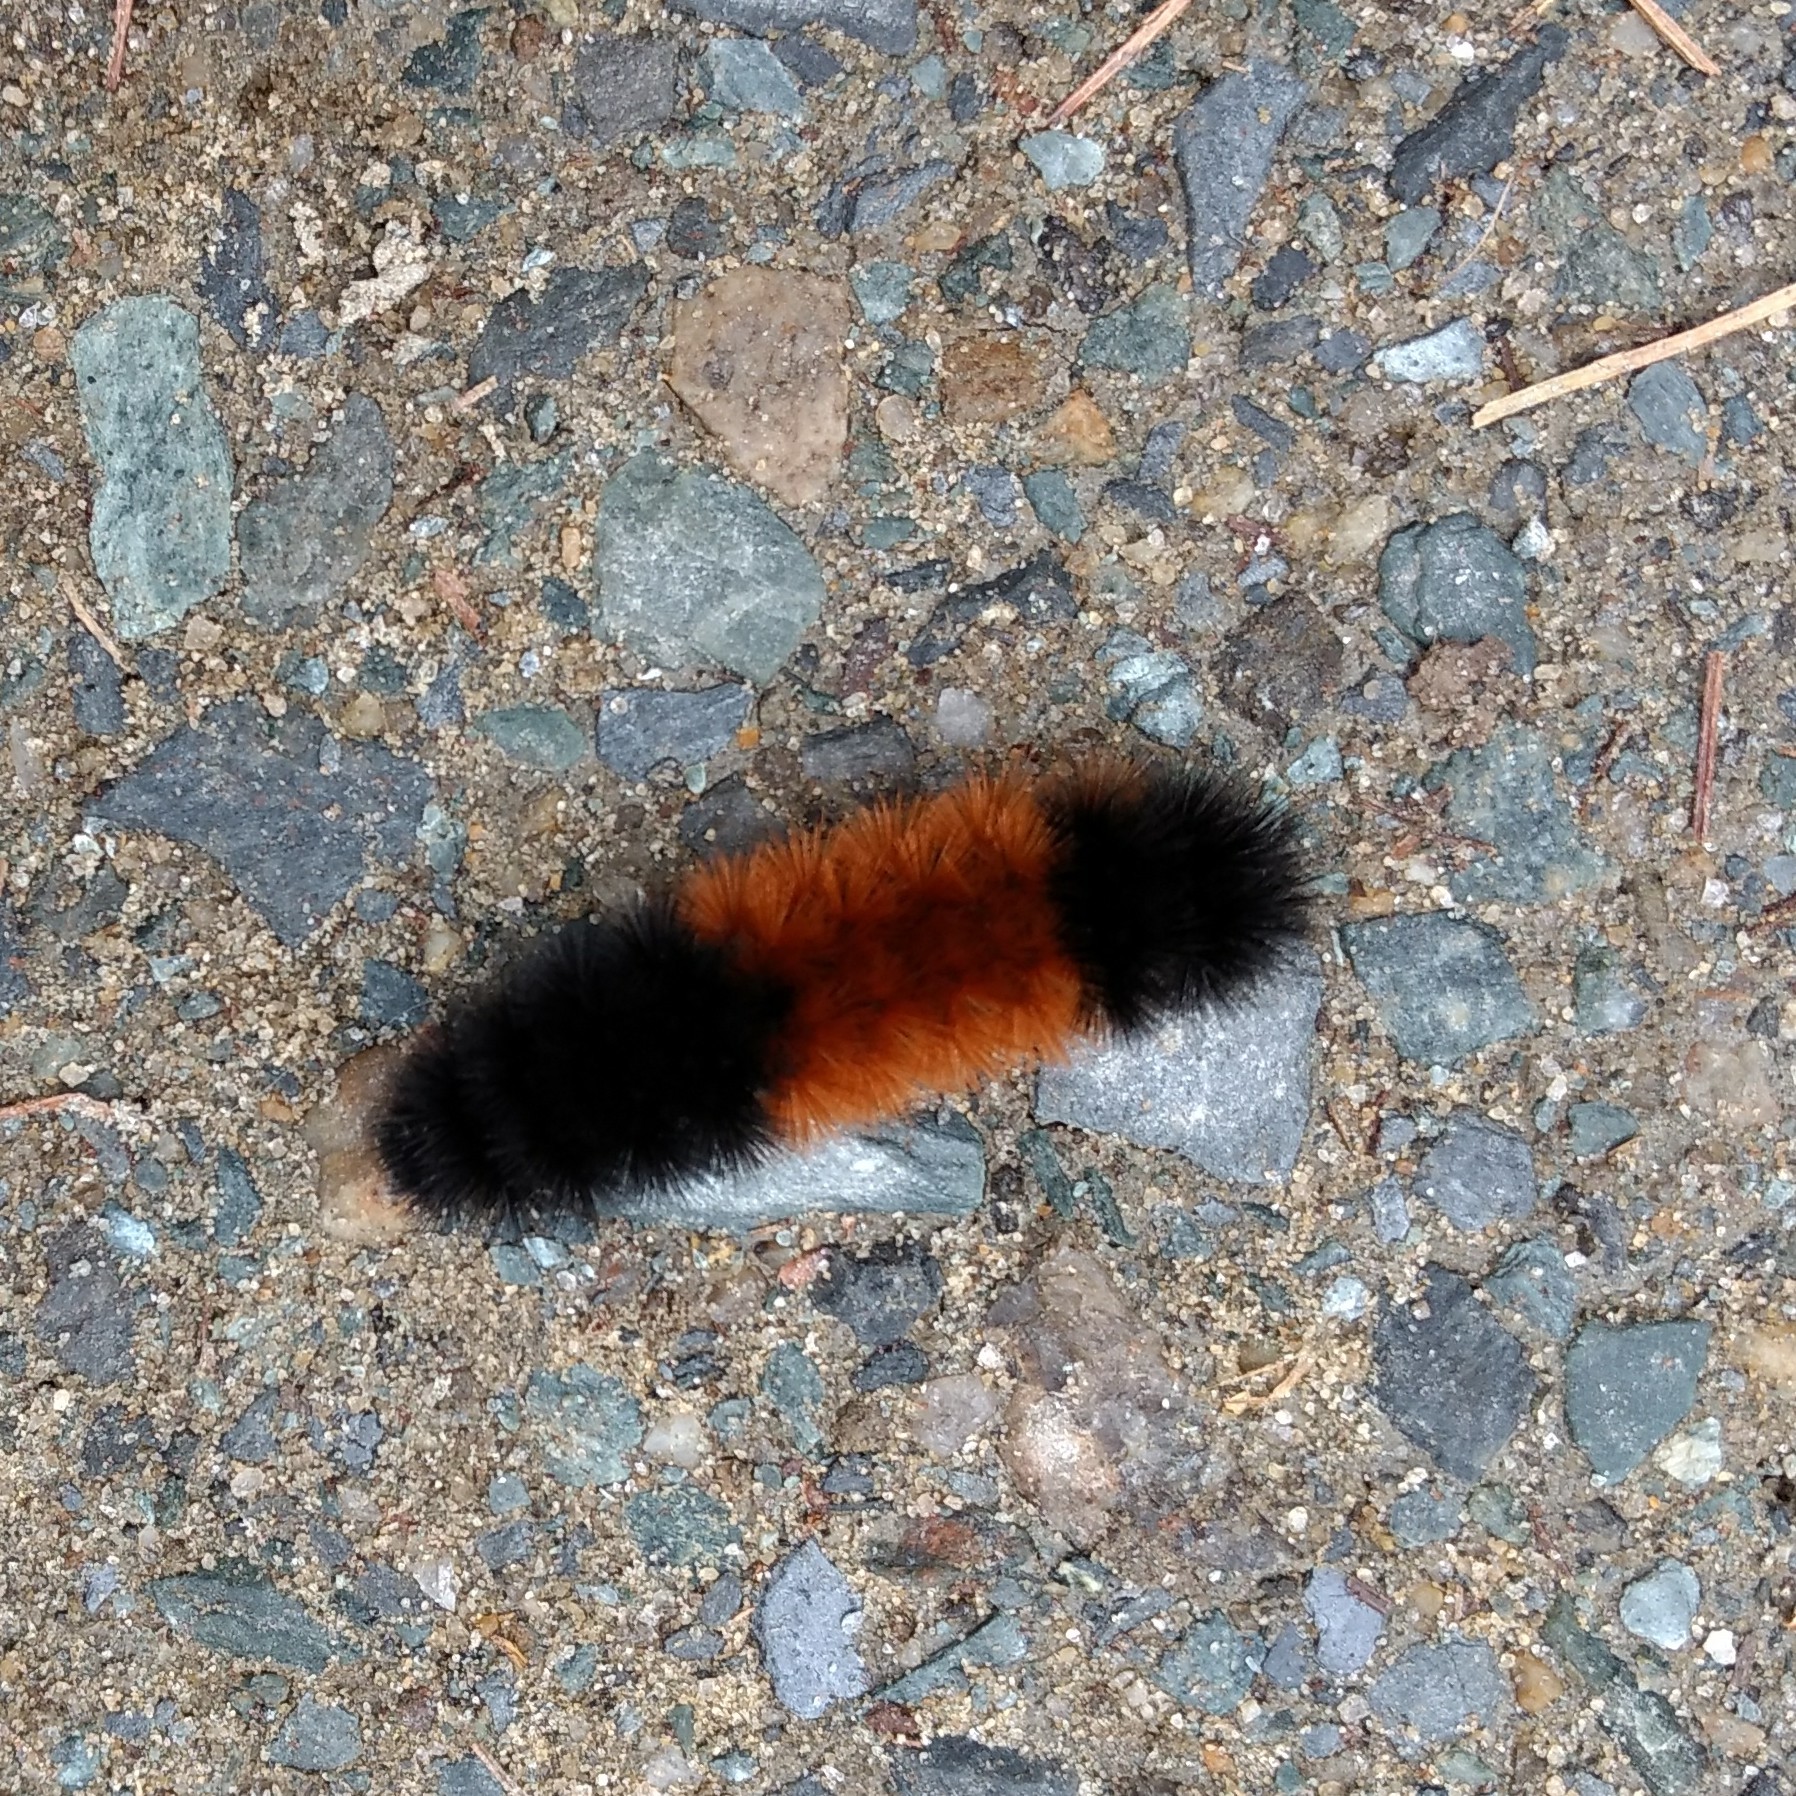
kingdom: Animalia
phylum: Arthropoda
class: Insecta
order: Lepidoptera
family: Erebidae
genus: Pyrrharctia
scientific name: Pyrrharctia isabella
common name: Isabella tiger moth
